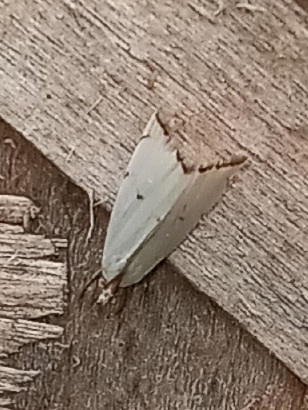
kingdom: Animalia
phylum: Arthropoda
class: Insecta
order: Lepidoptera
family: Crambidae
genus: Argyria
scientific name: Argyria pusillalis
